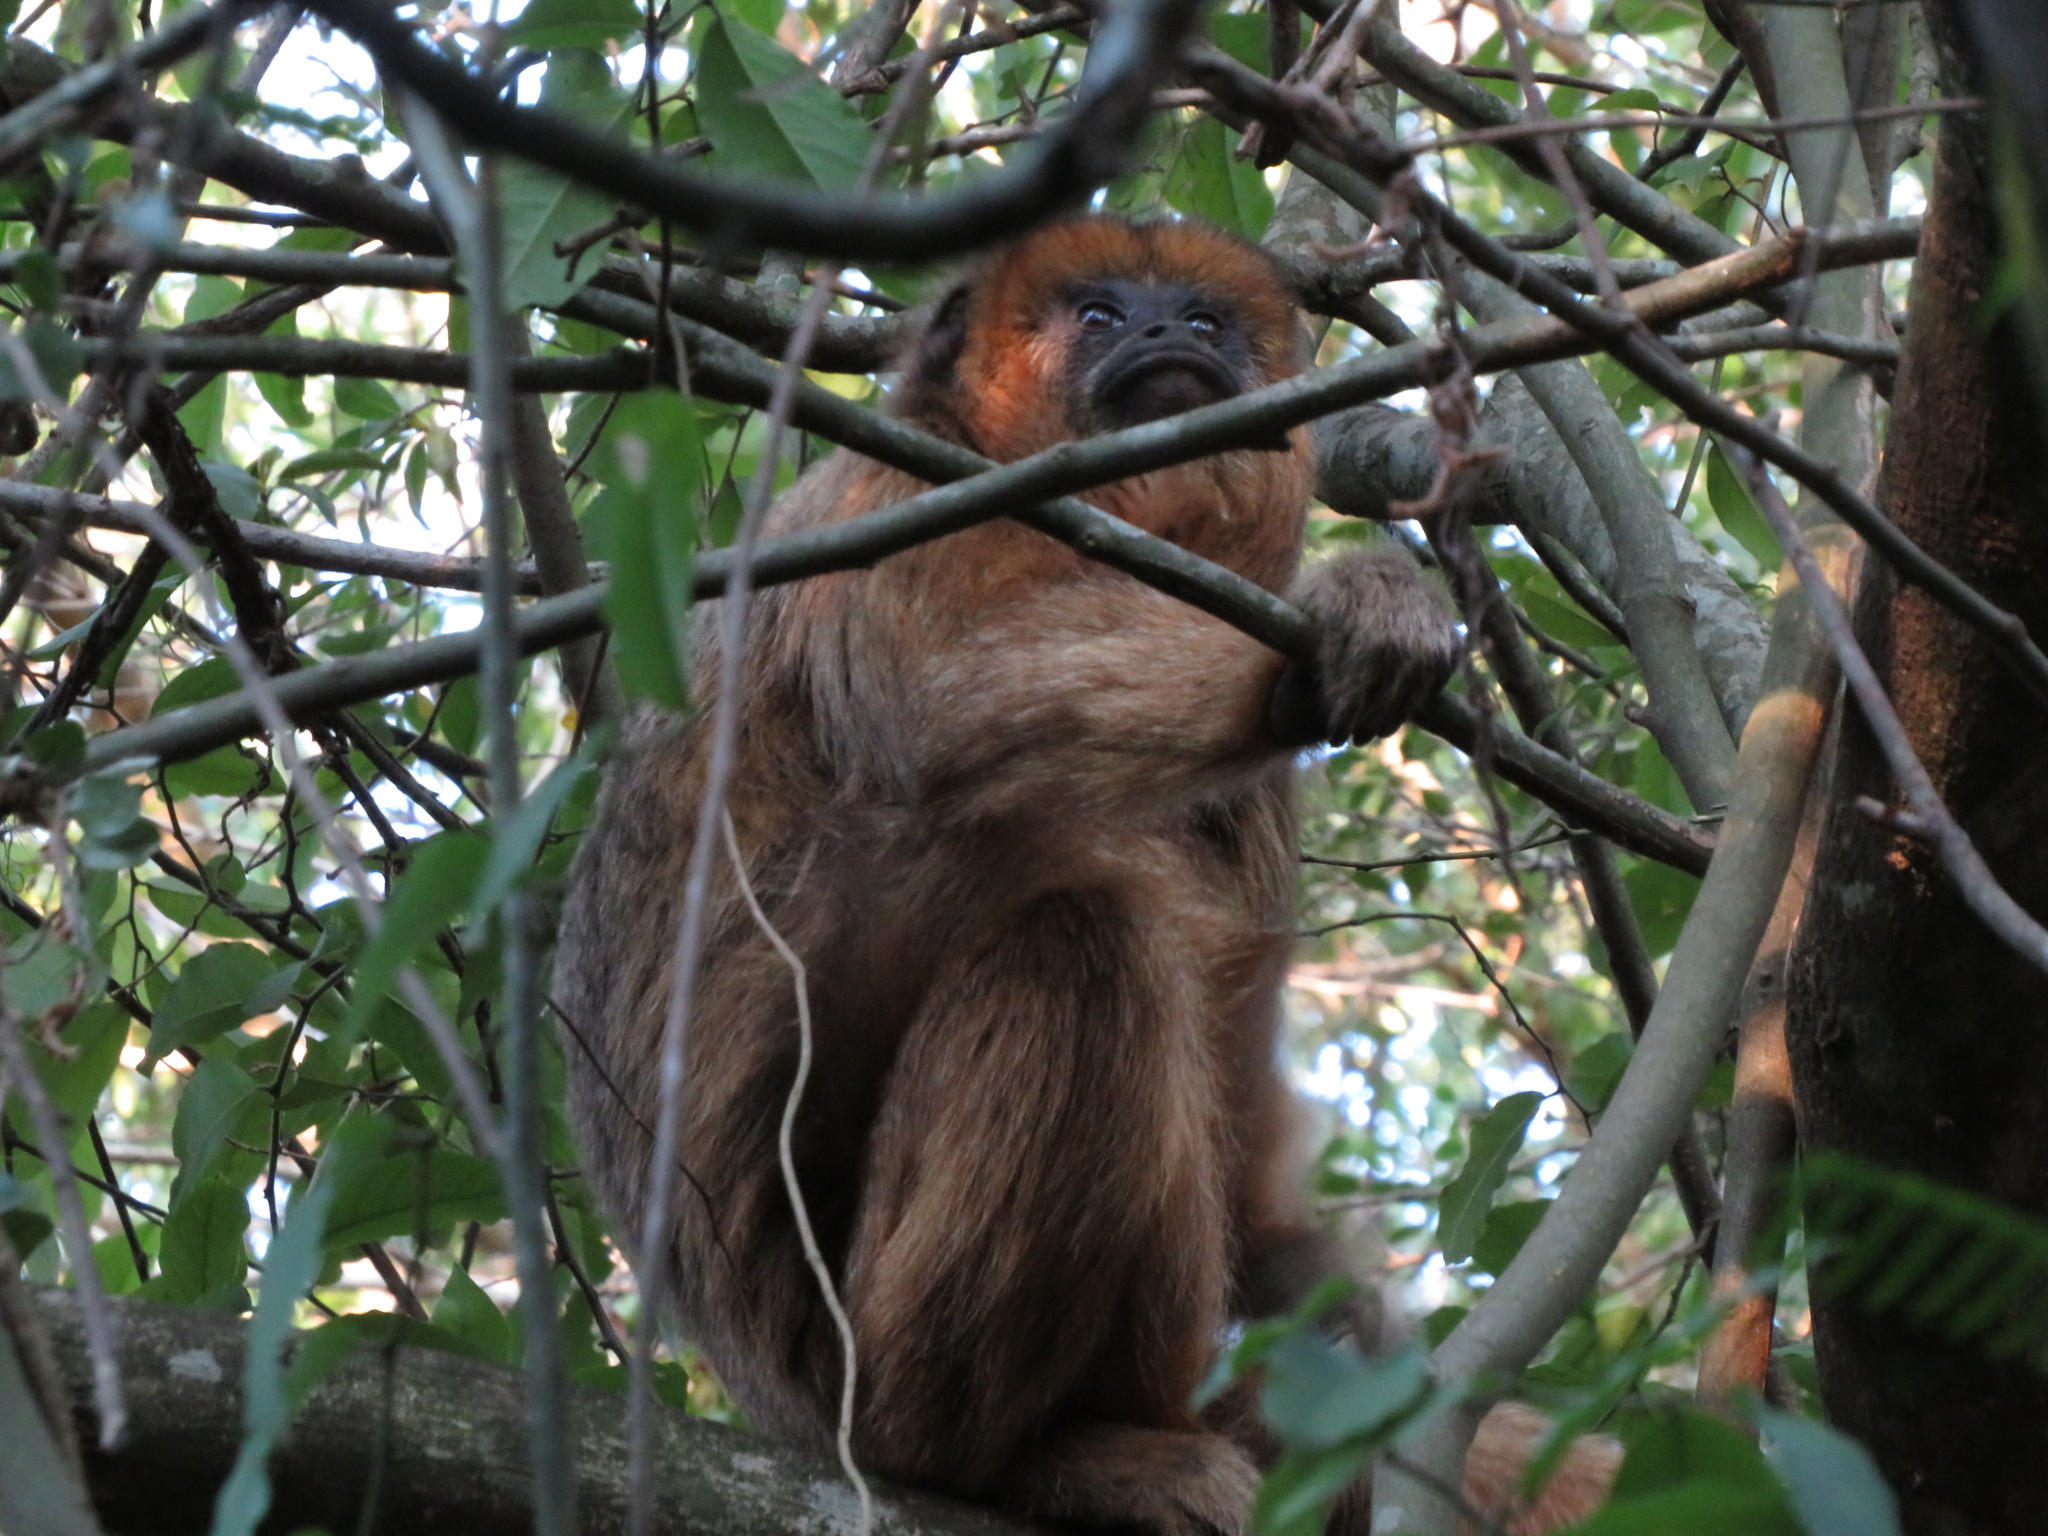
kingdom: Animalia
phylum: Chordata
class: Mammalia
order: Primates
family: Atelidae
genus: Alouatta
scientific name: Alouatta caraya
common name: Black howler
